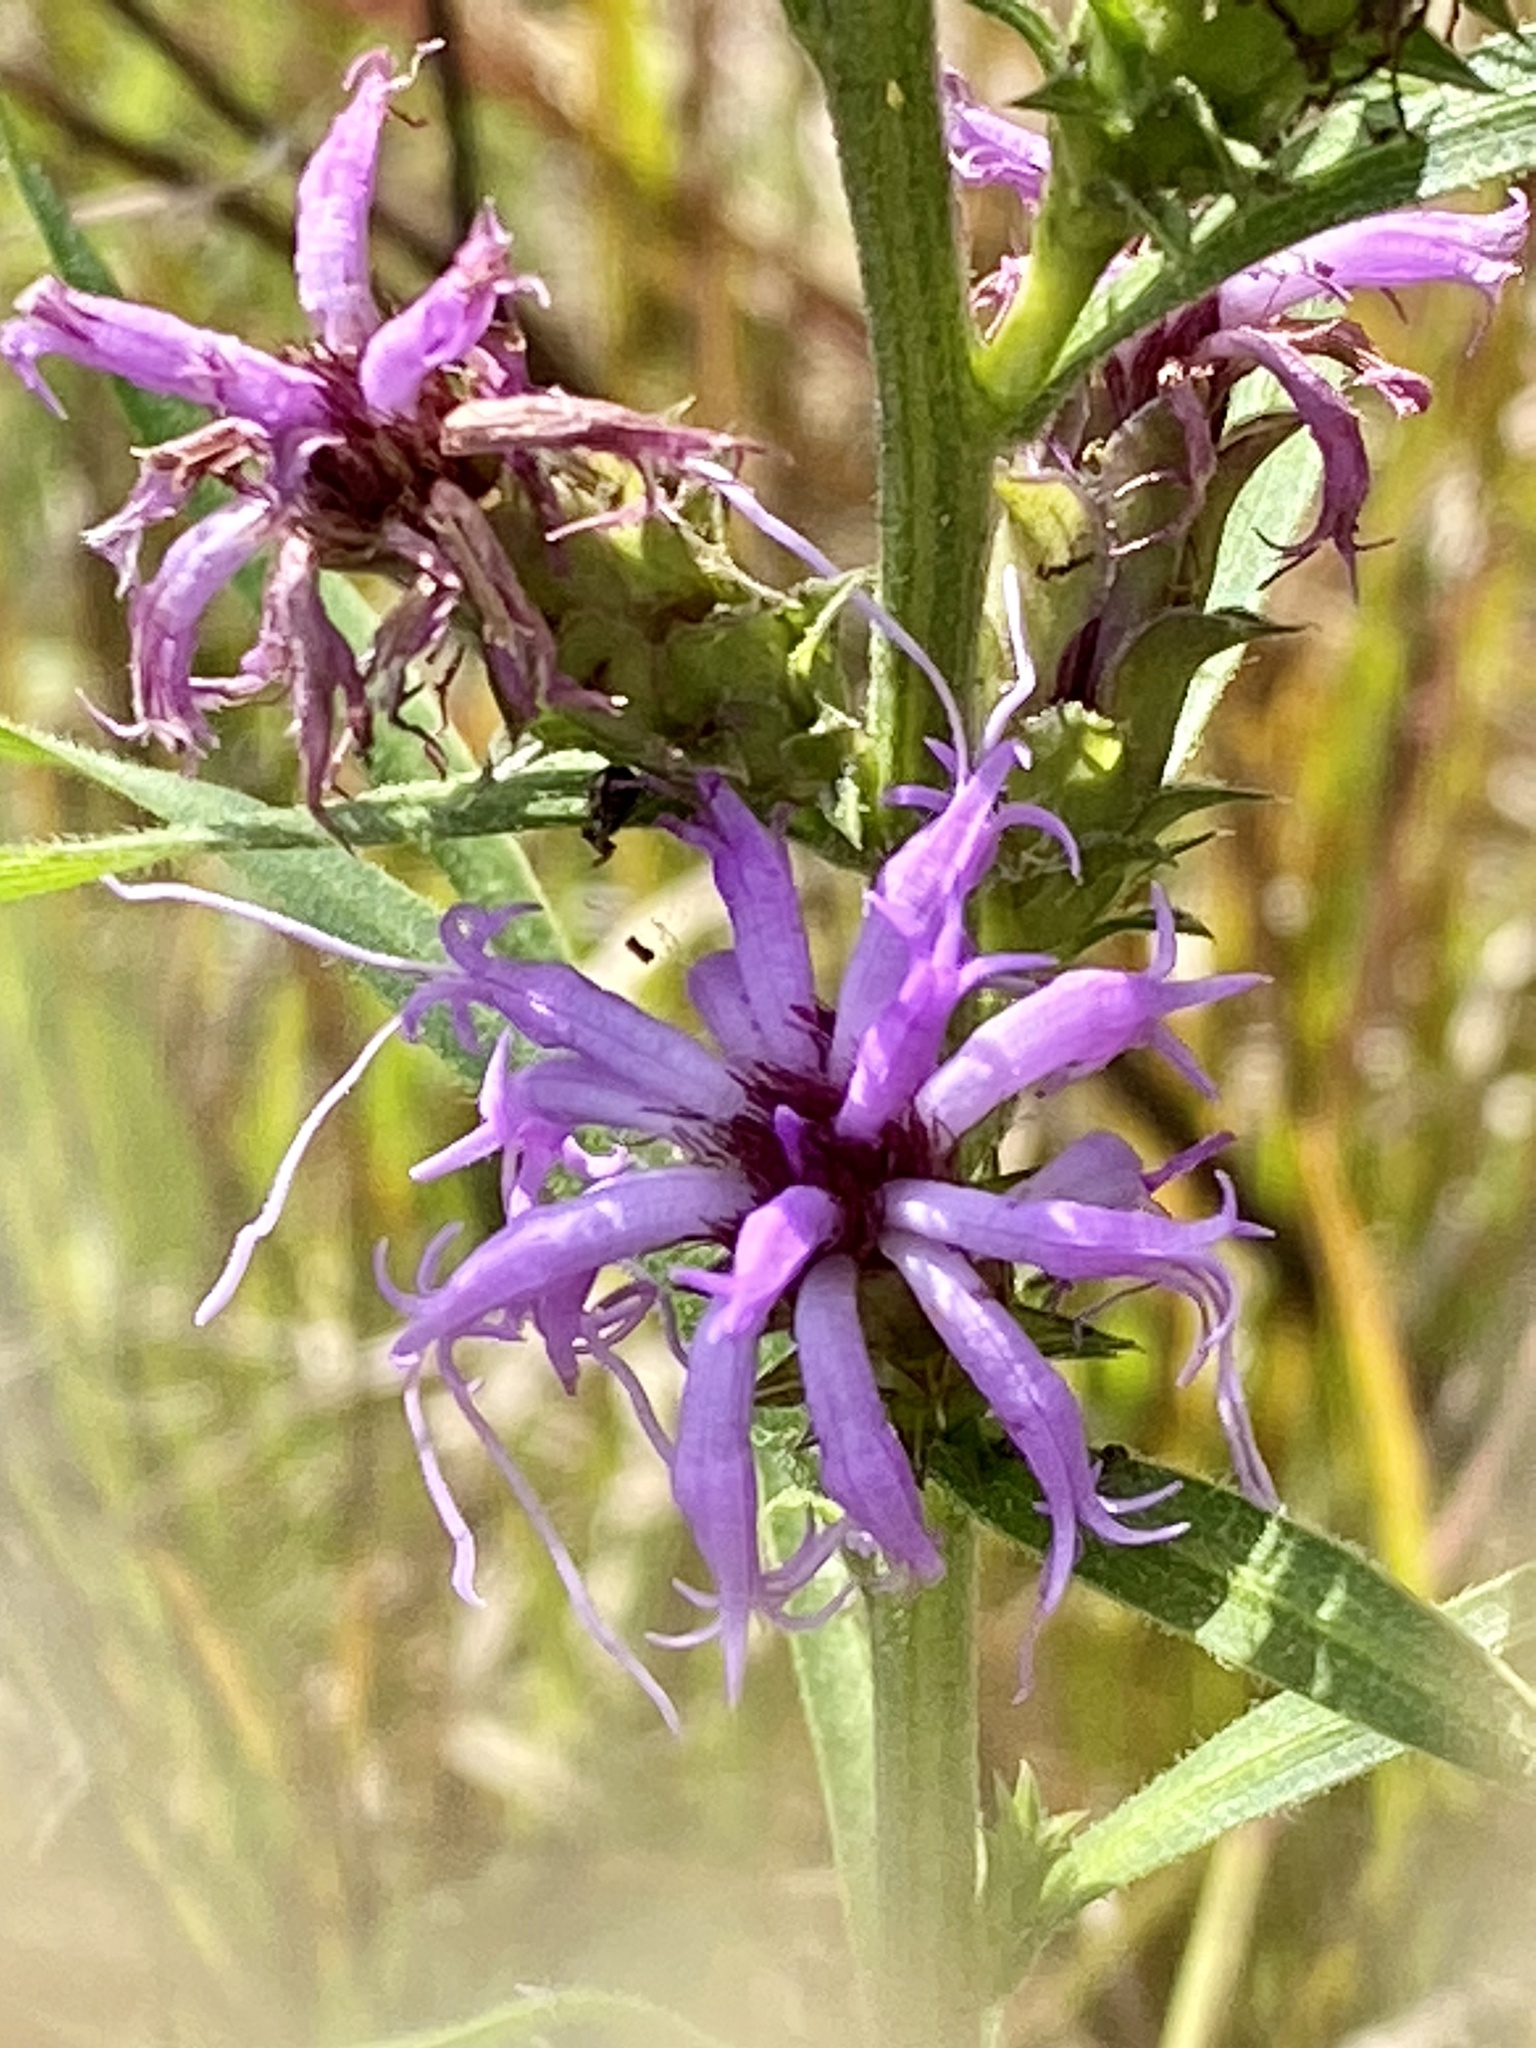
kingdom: Plantae
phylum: Tracheophyta
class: Magnoliopsida
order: Asterales
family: Asteraceae
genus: Liatris
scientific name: Liatris squarrosa
